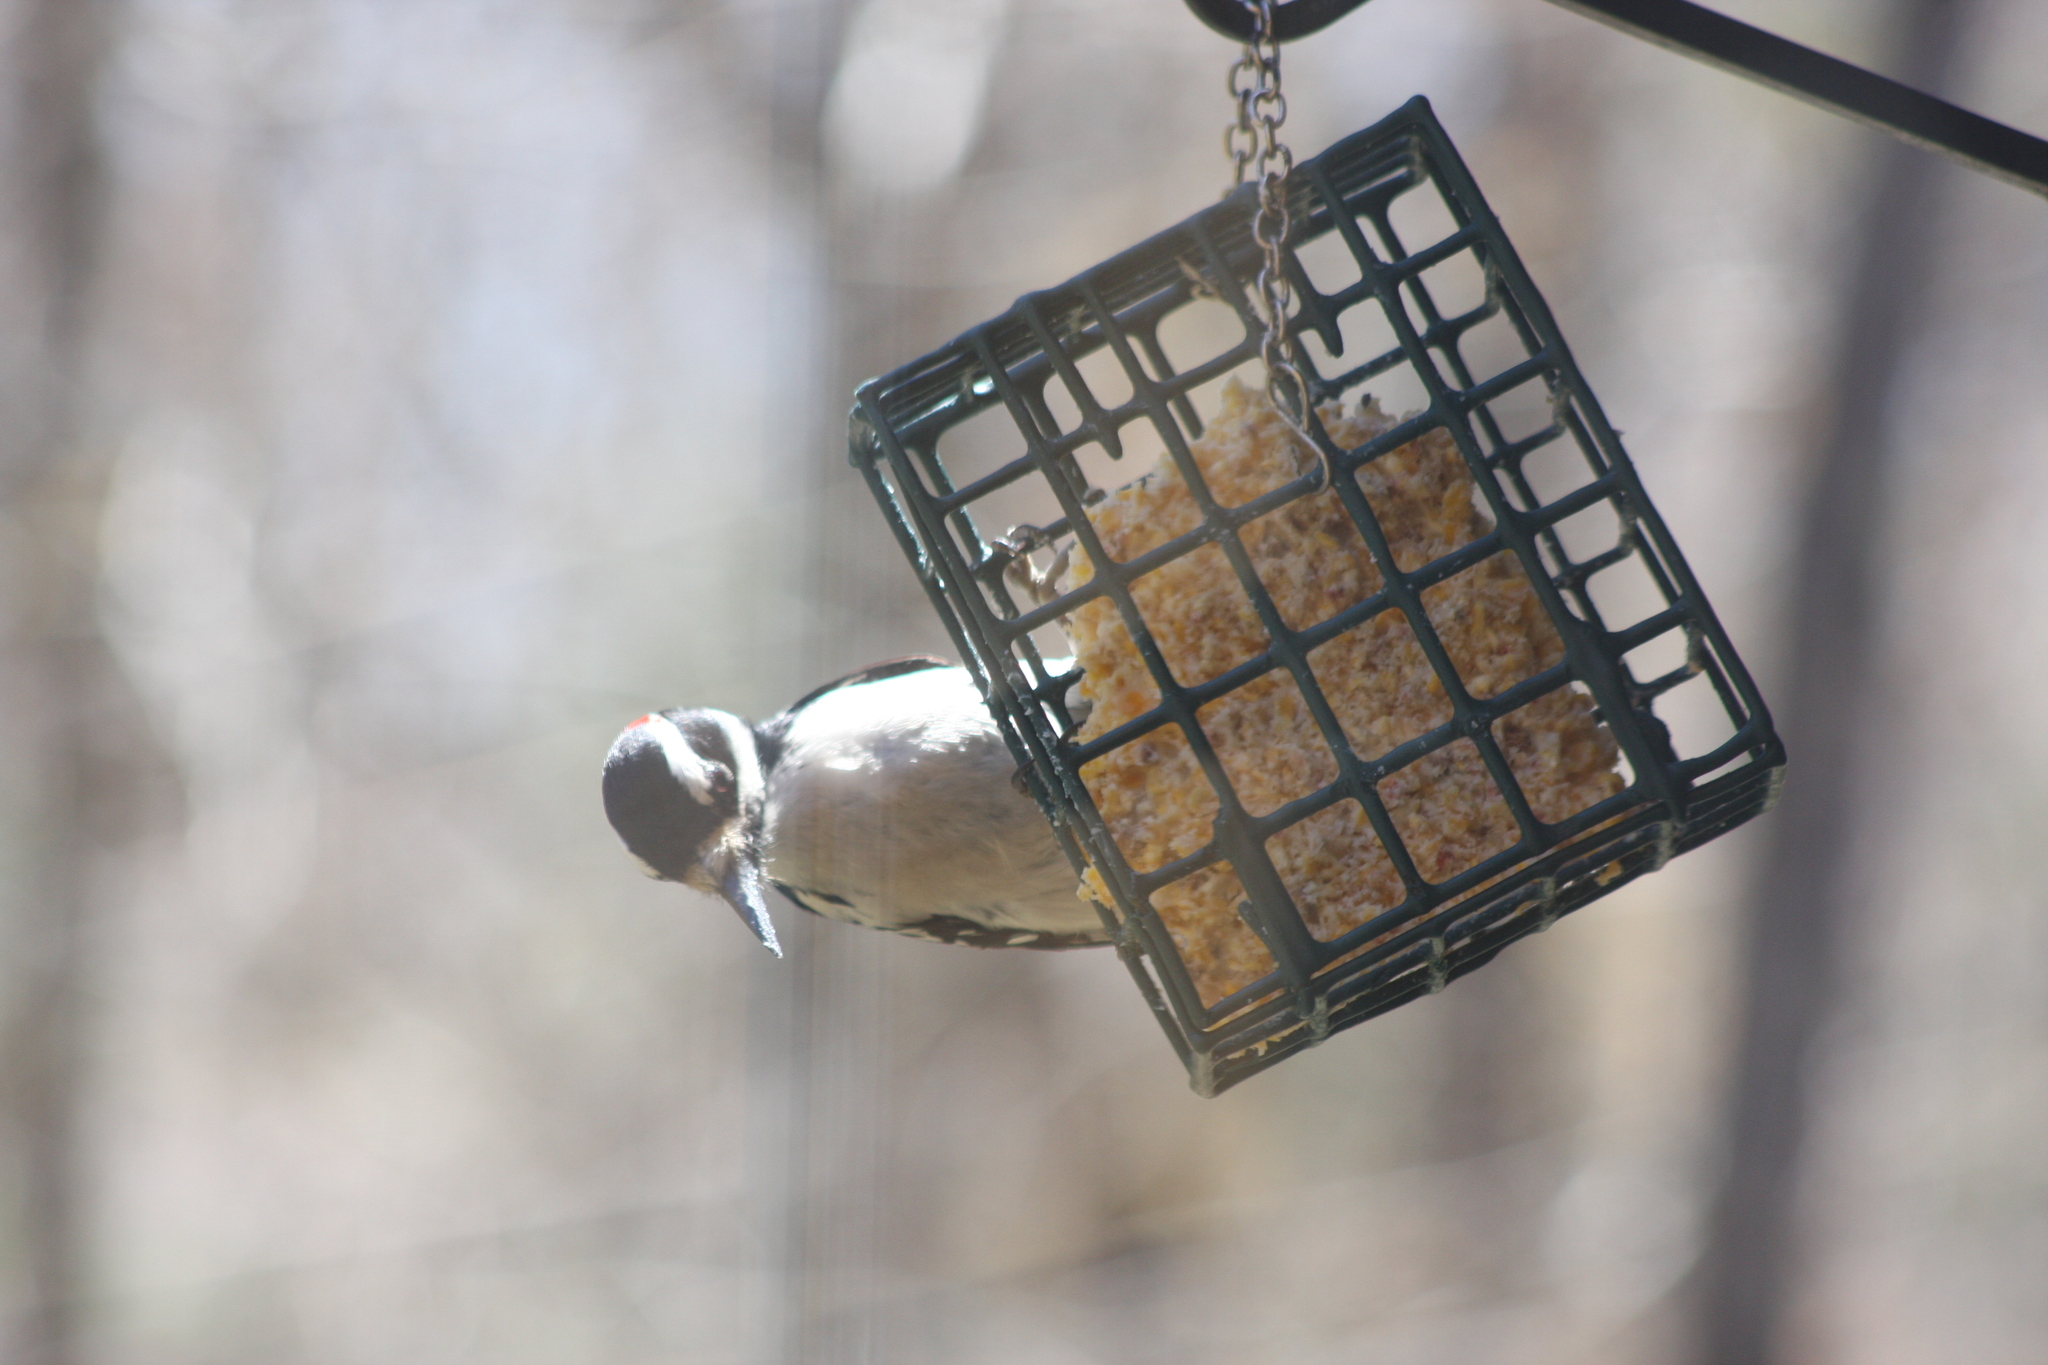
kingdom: Animalia
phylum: Chordata
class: Aves
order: Piciformes
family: Picidae
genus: Leuconotopicus
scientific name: Leuconotopicus villosus
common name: Hairy woodpecker
